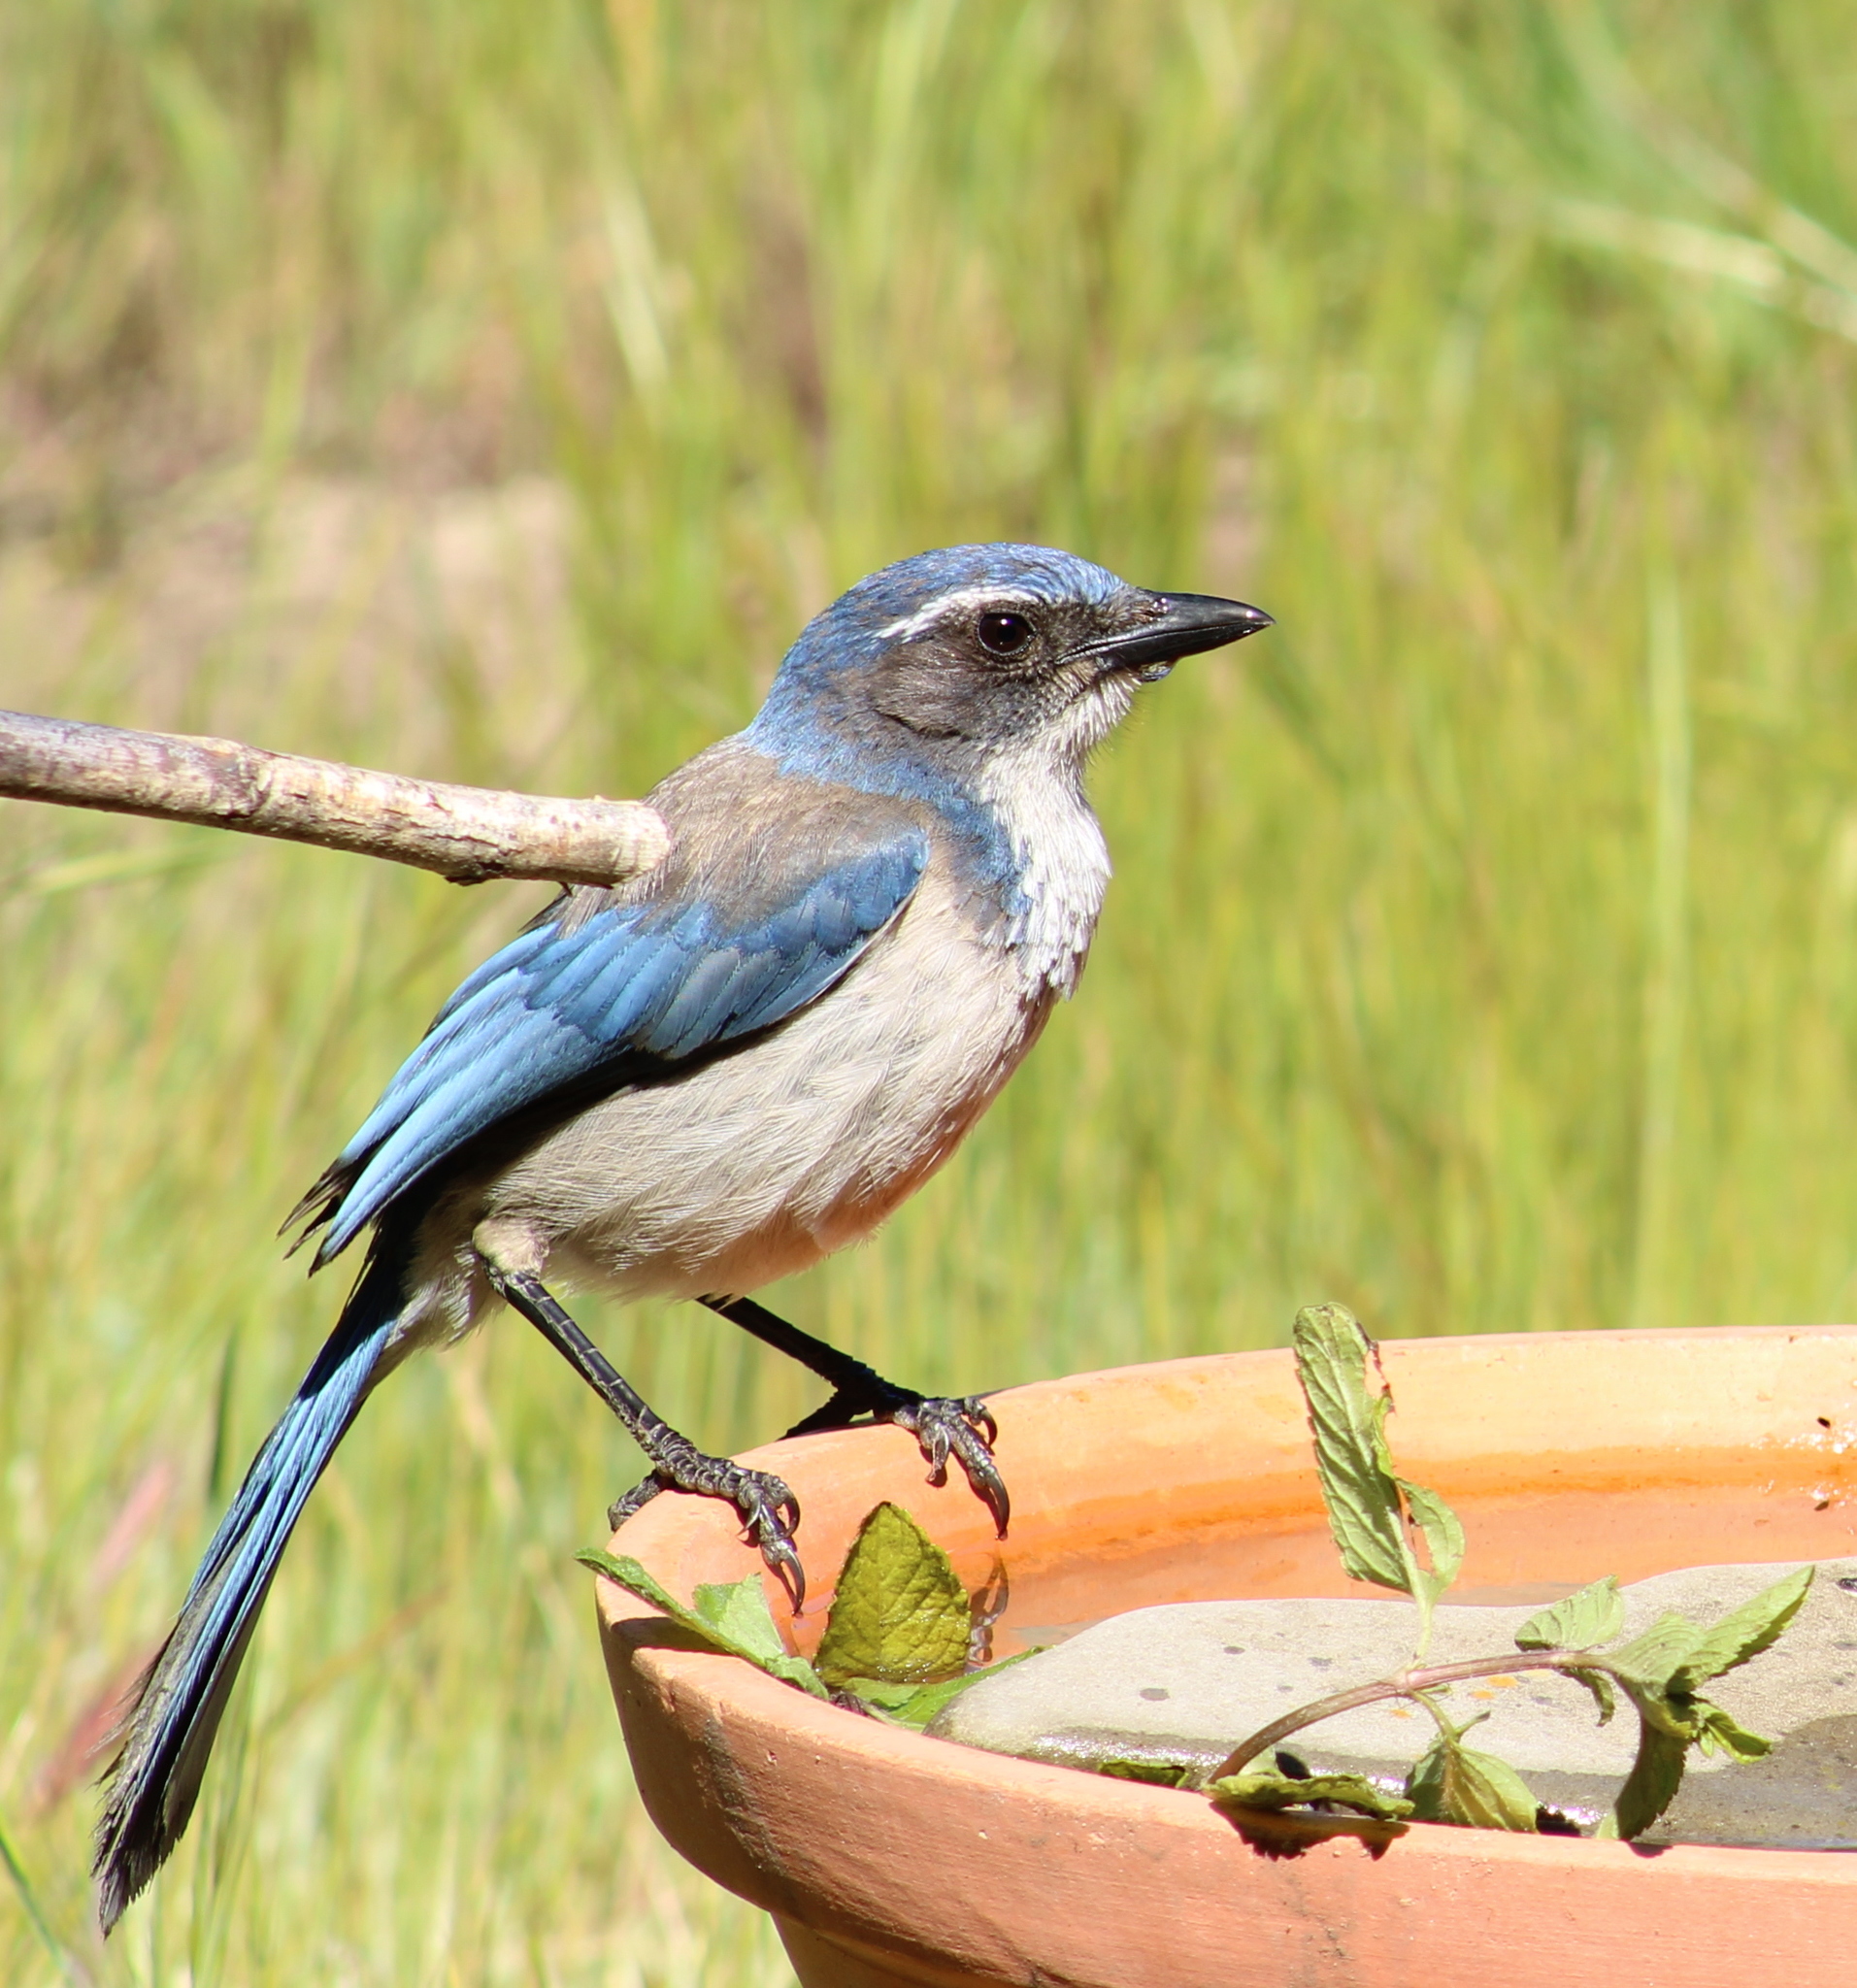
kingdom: Animalia
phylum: Chordata
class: Aves
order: Passeriformes
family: Corvidae
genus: Aphelocoma
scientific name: Aphelocoma californica
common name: California scrub-jay
